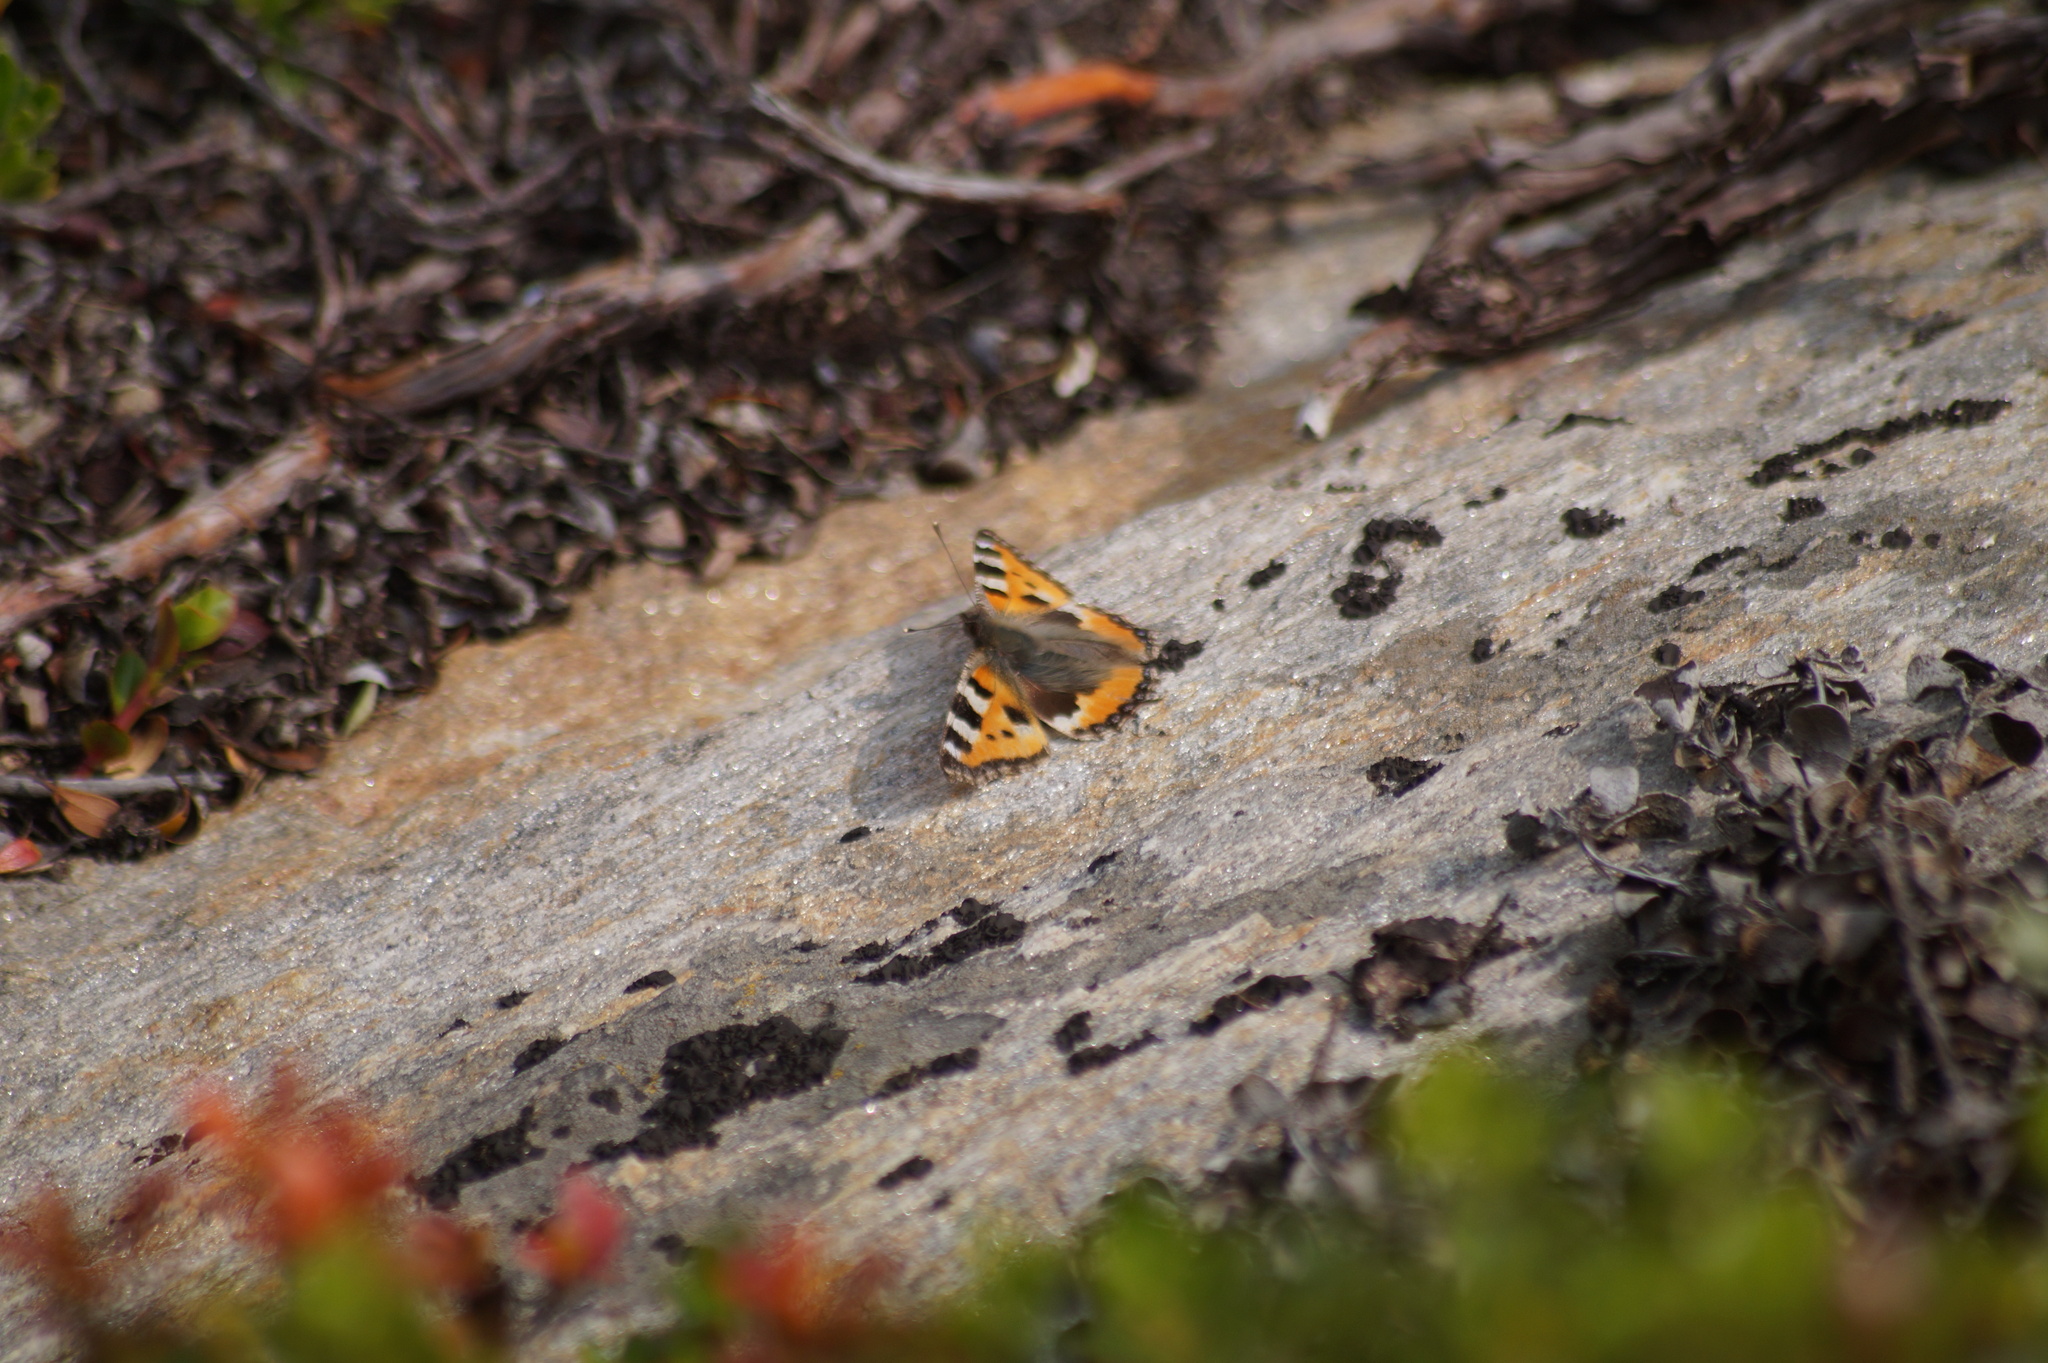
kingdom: Animalia
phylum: Arthropoda
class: Insecta
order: Lepidoptera
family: Nymphalidae
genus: Aglais
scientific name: Aglais urticae
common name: Small tortoiseshell
